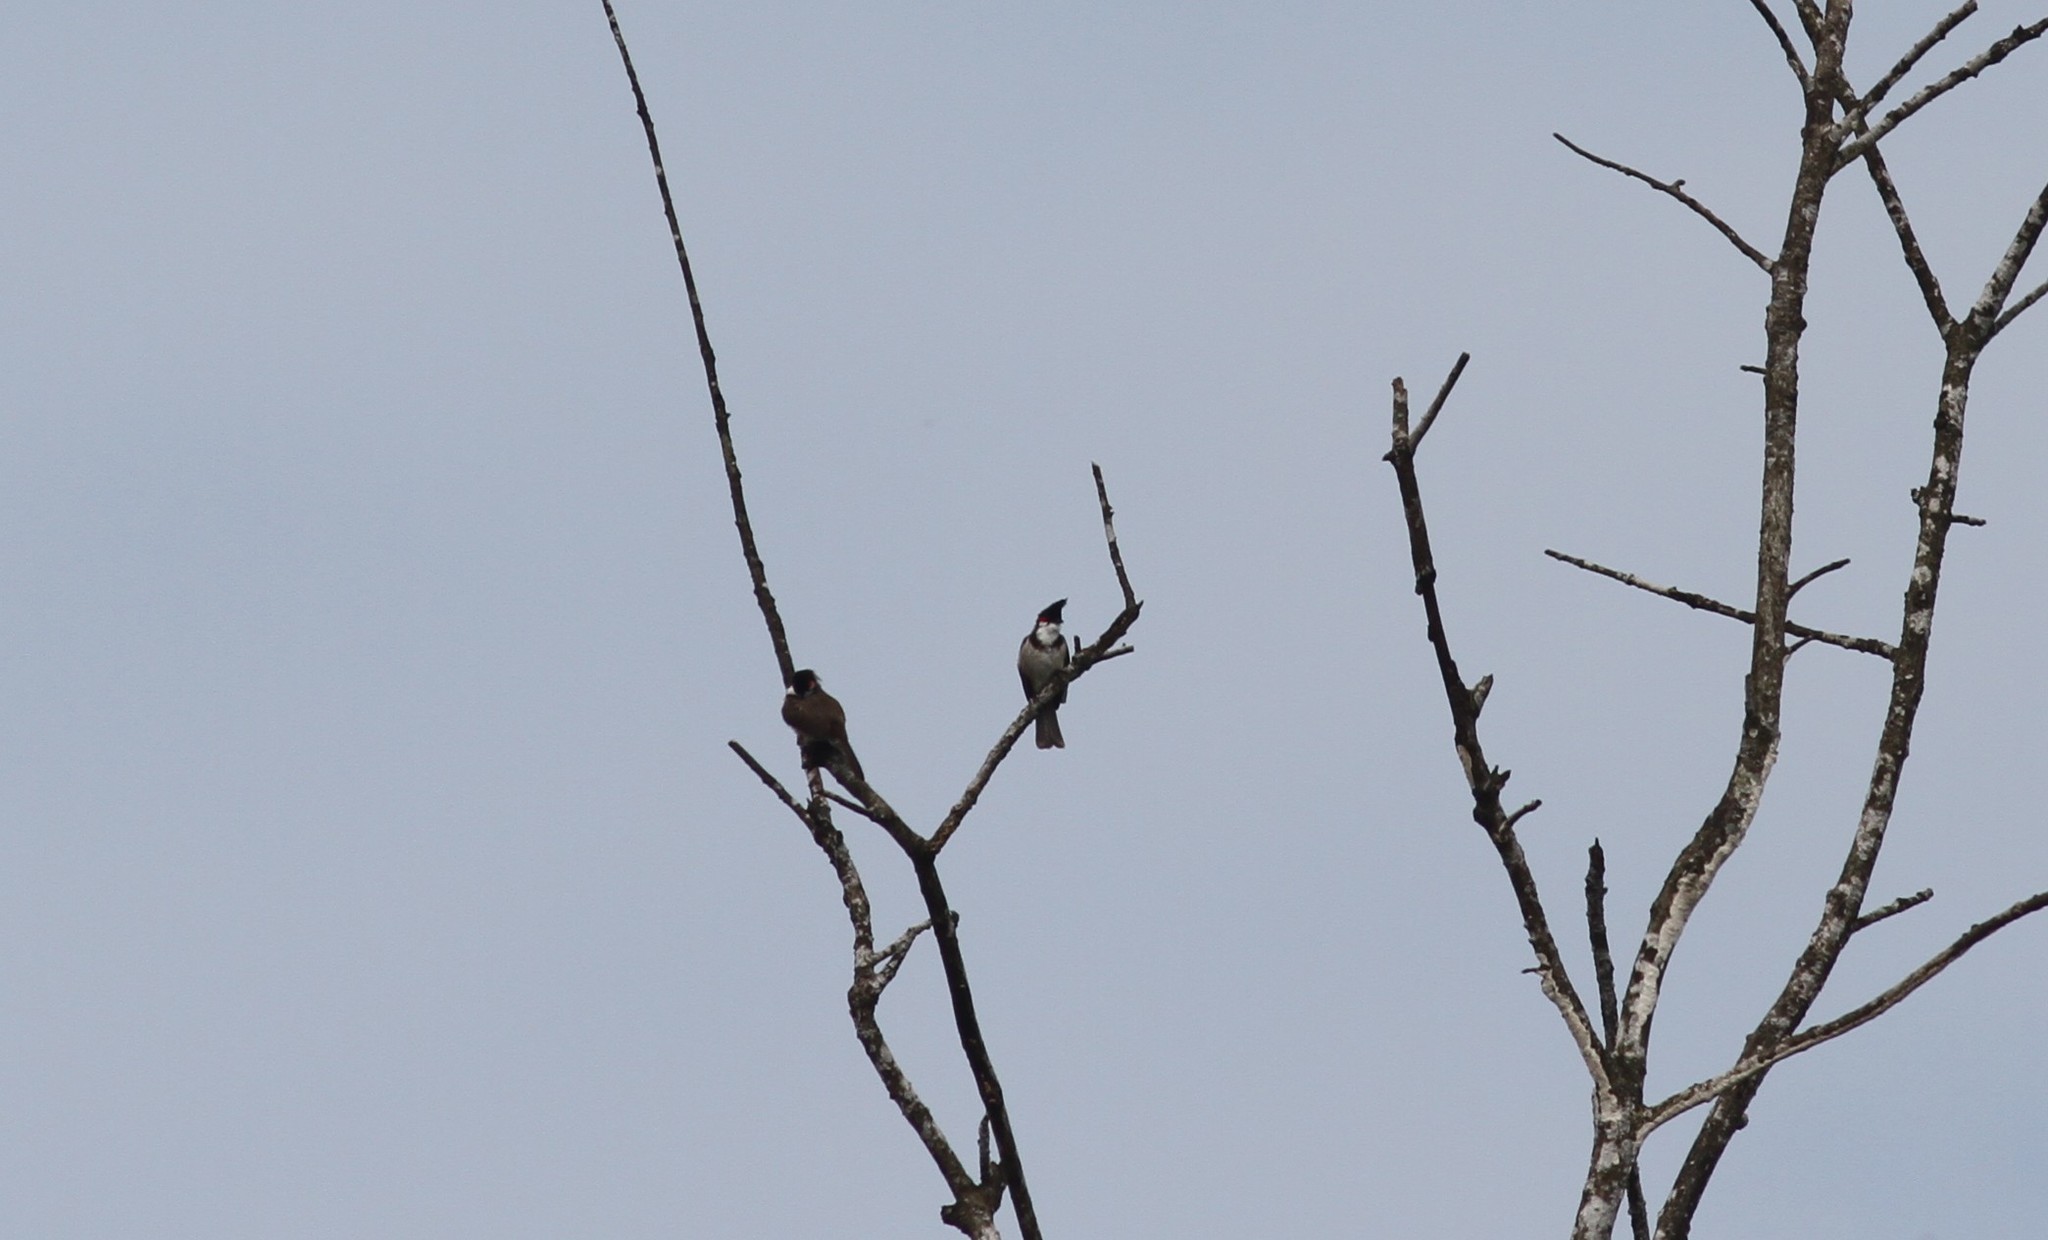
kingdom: Animalia
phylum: Chordata
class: Aves
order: Passeriformes
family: Pycnonotidae
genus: Pycnonotus
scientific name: Pycnonotus jocosus
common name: Red-whiskered bulbul
